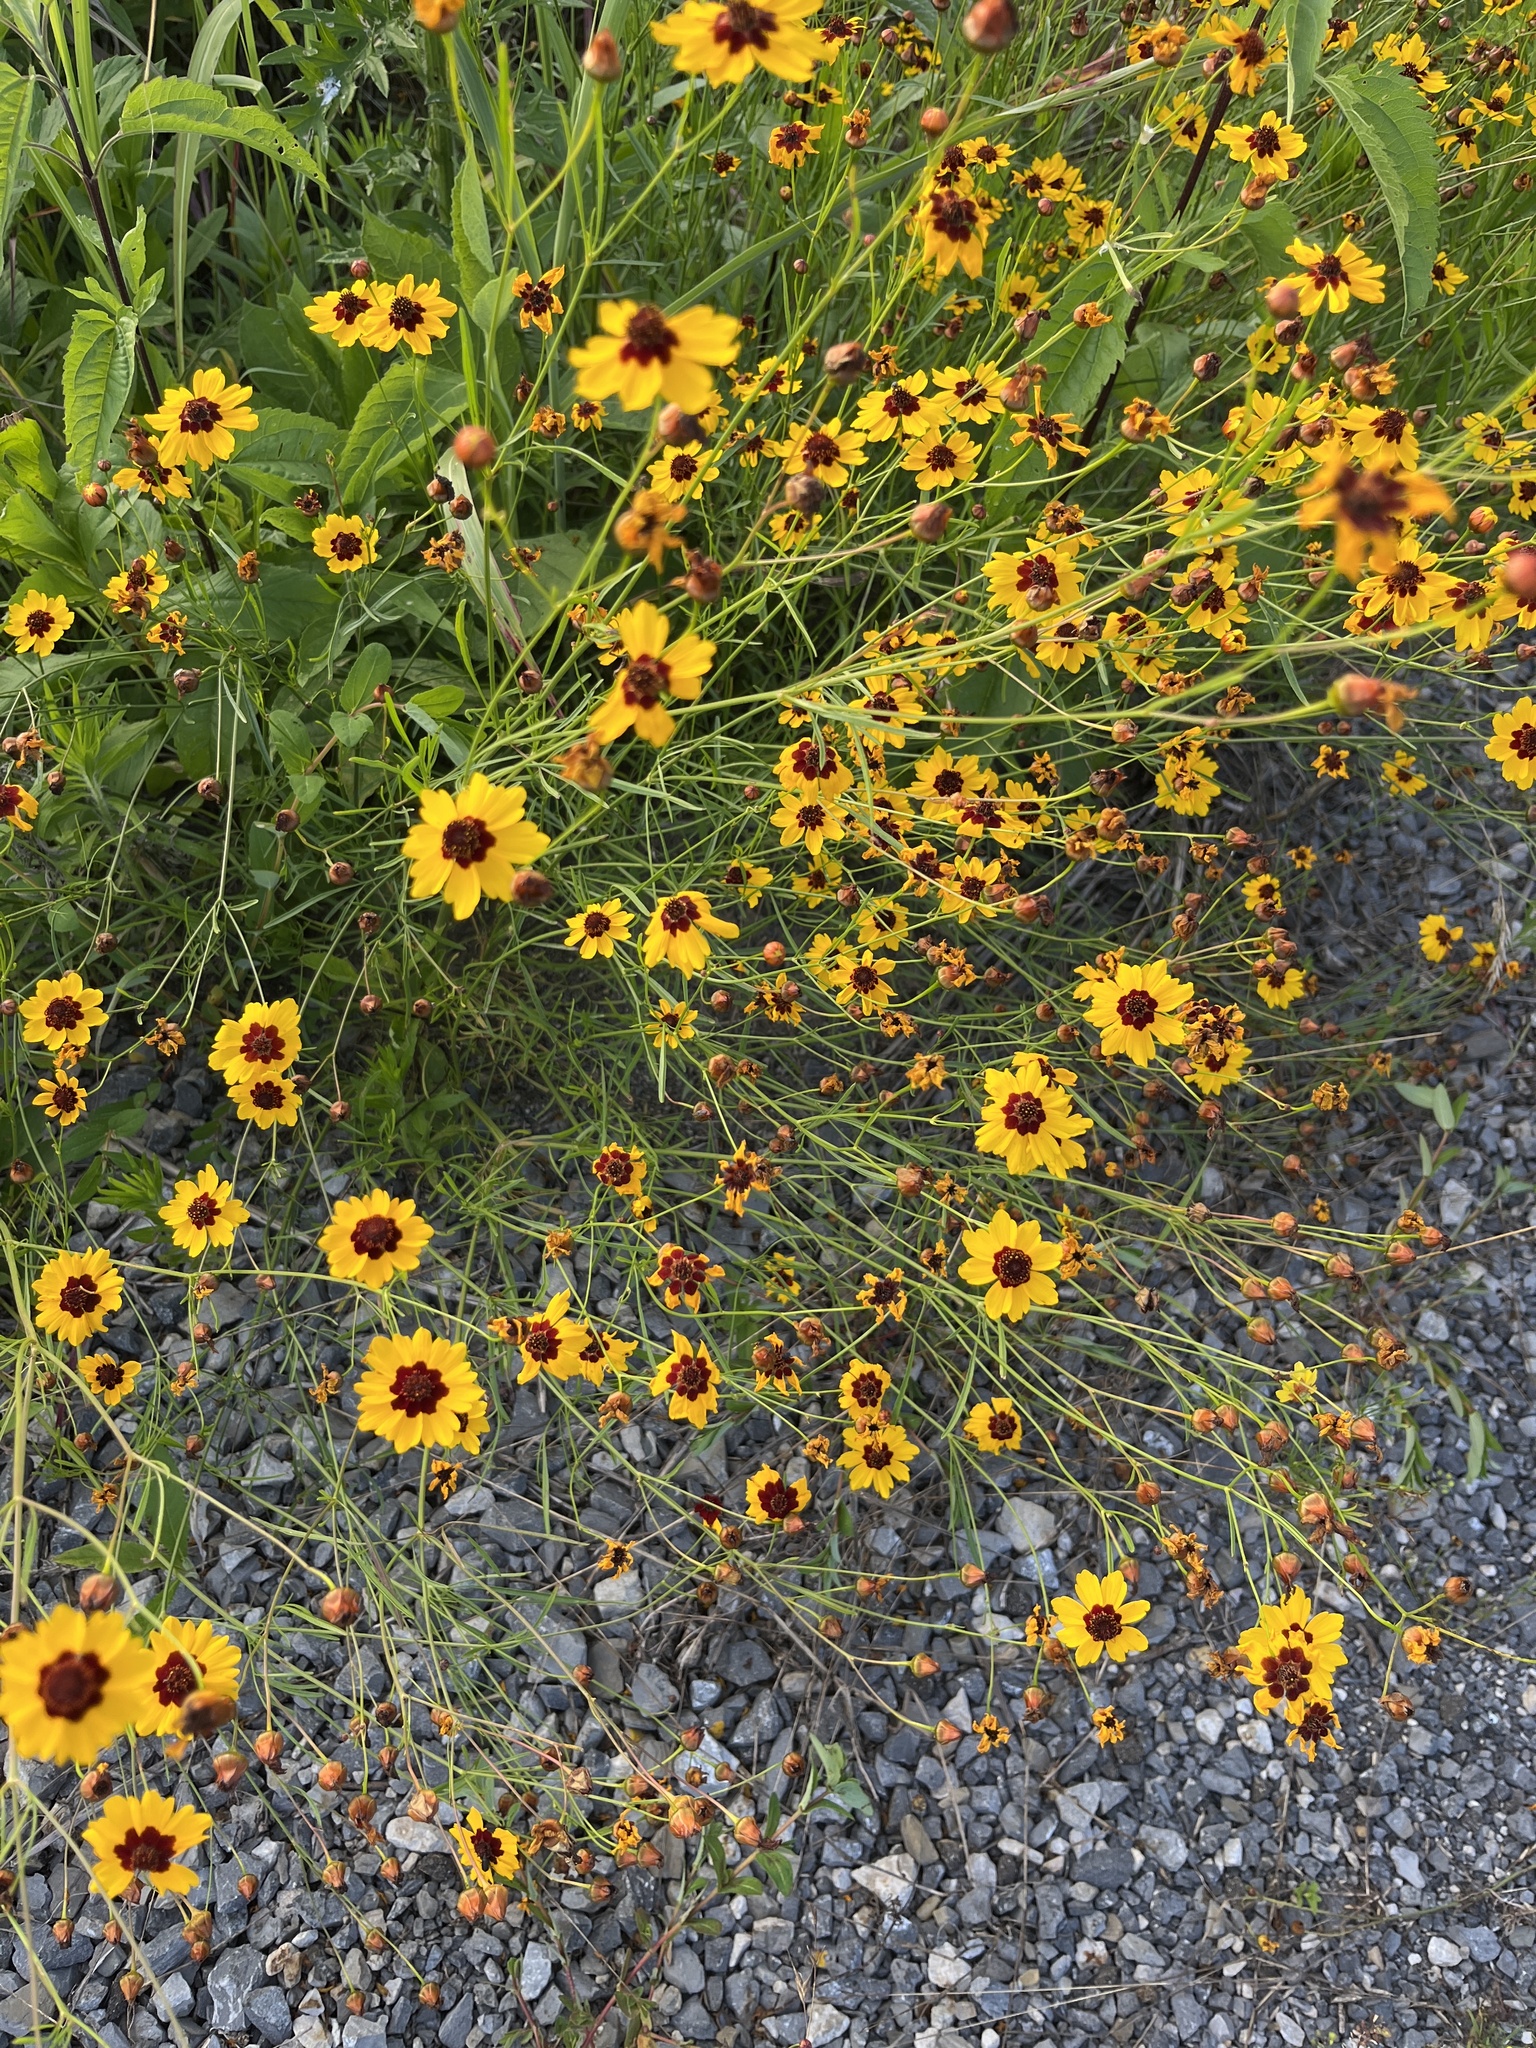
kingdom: Plantae
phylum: Tracheophyta
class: Magnoliopsida
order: Asterales
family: Asteraceae
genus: Coreopsis
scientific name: Coreopsis tinctoria
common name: Garden tickseed
